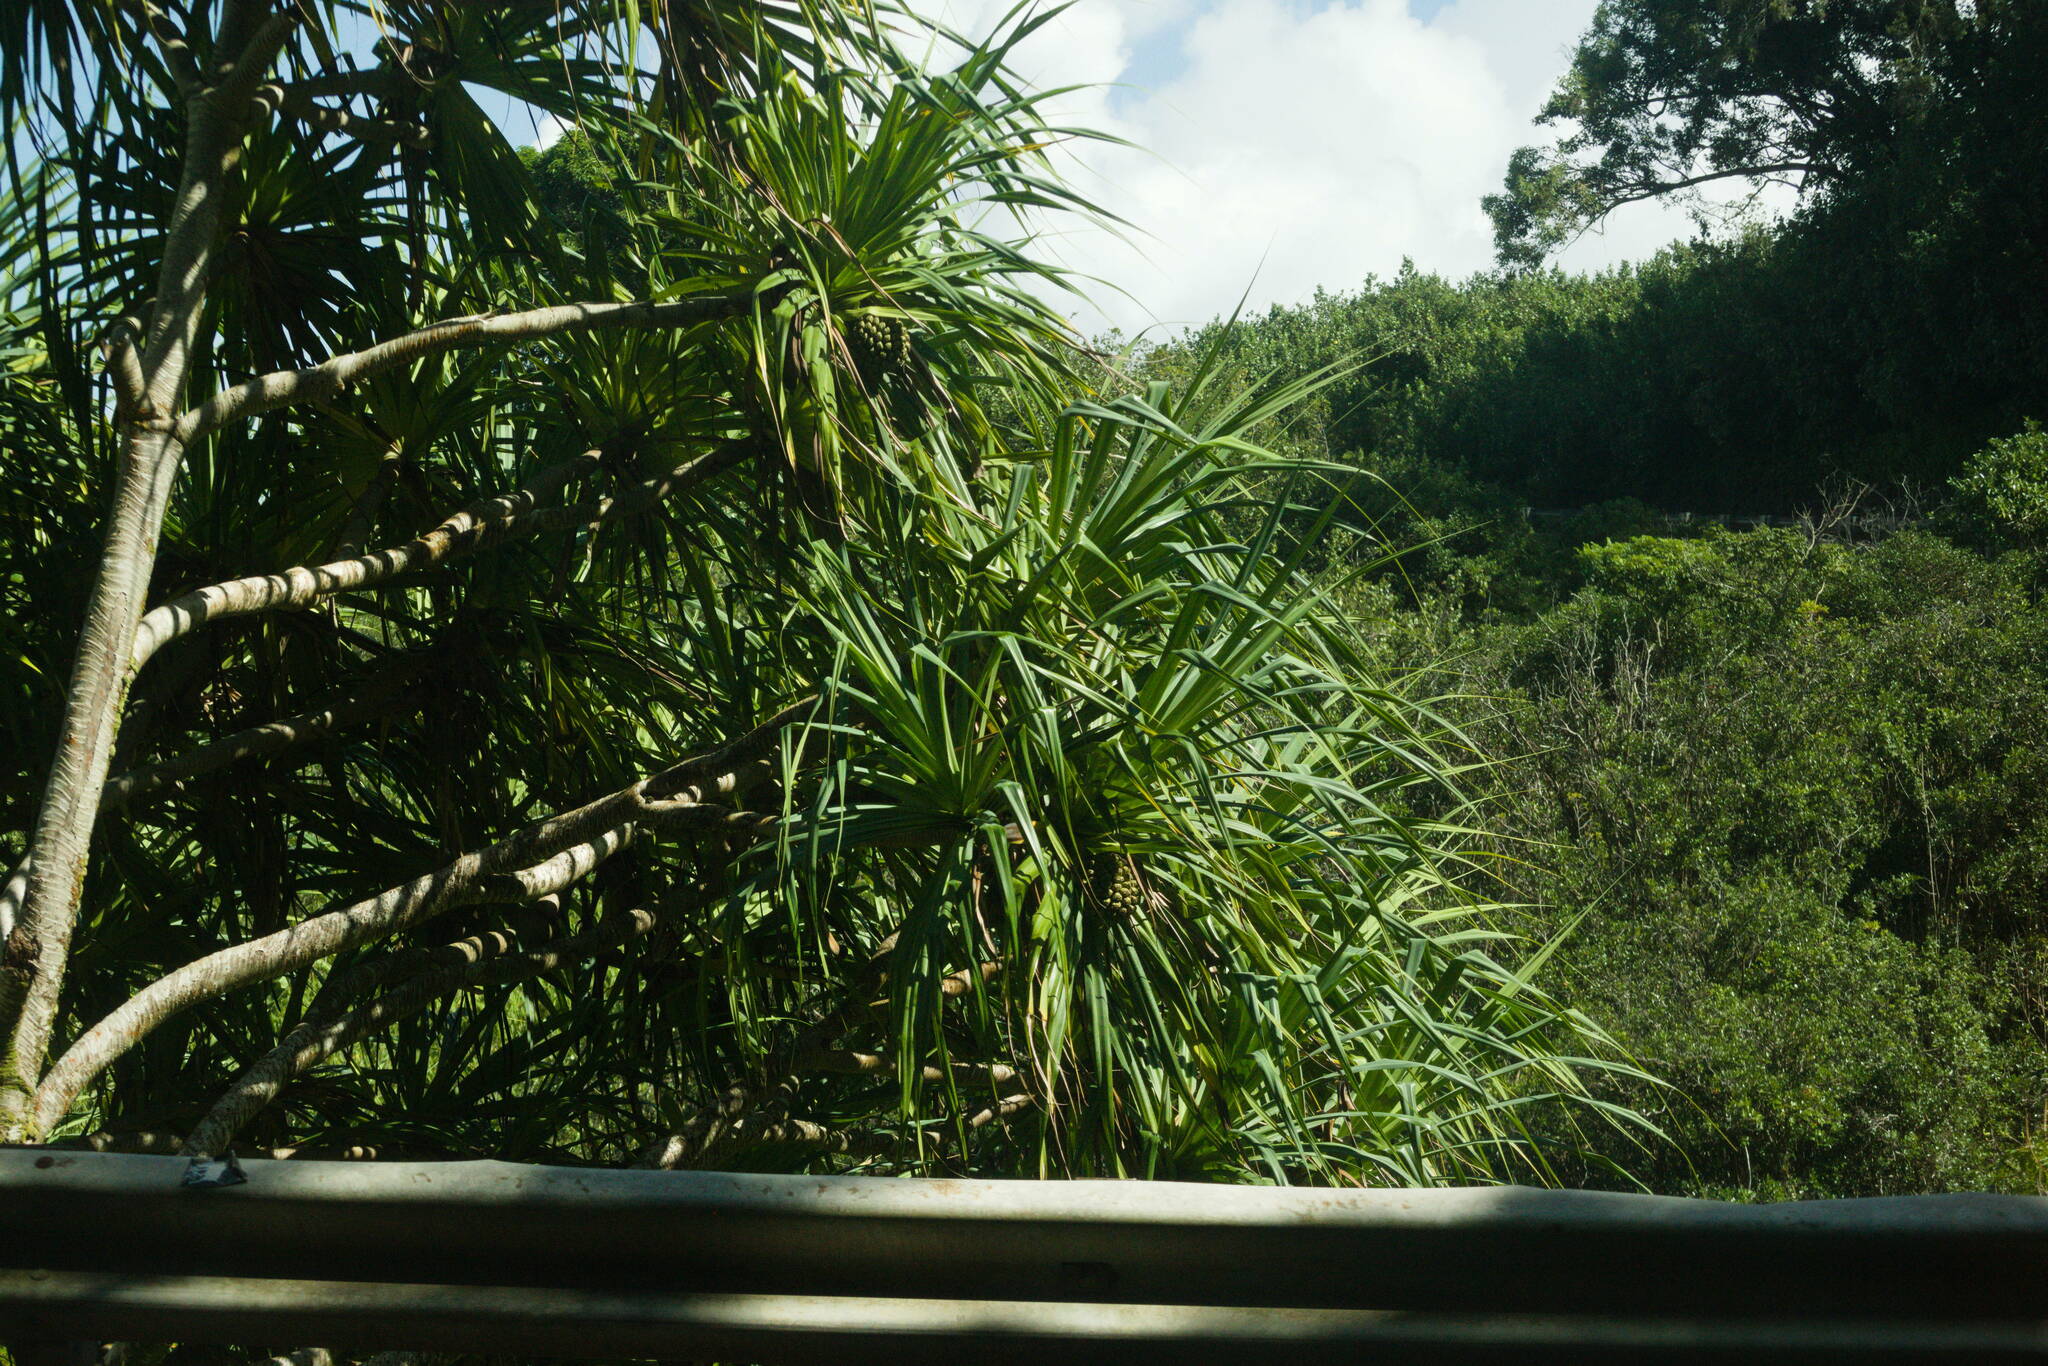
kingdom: Plantae
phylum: Tracheophyta
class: Liliopsida
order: Pandanales
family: Pandanaceae
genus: Pandanus
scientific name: Pandanus tectorius
